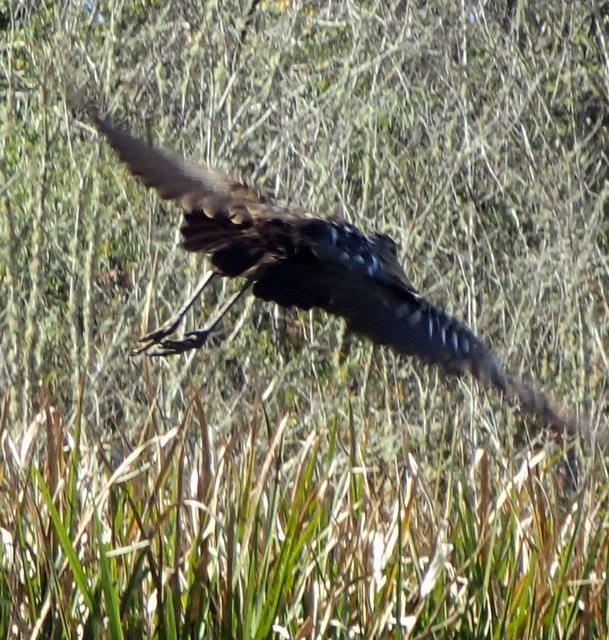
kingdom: Animalia
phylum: Chordata
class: Aves
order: Gruiformes
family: Aramidae
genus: Aramus
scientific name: Aramus guarauna
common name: Limpkin
